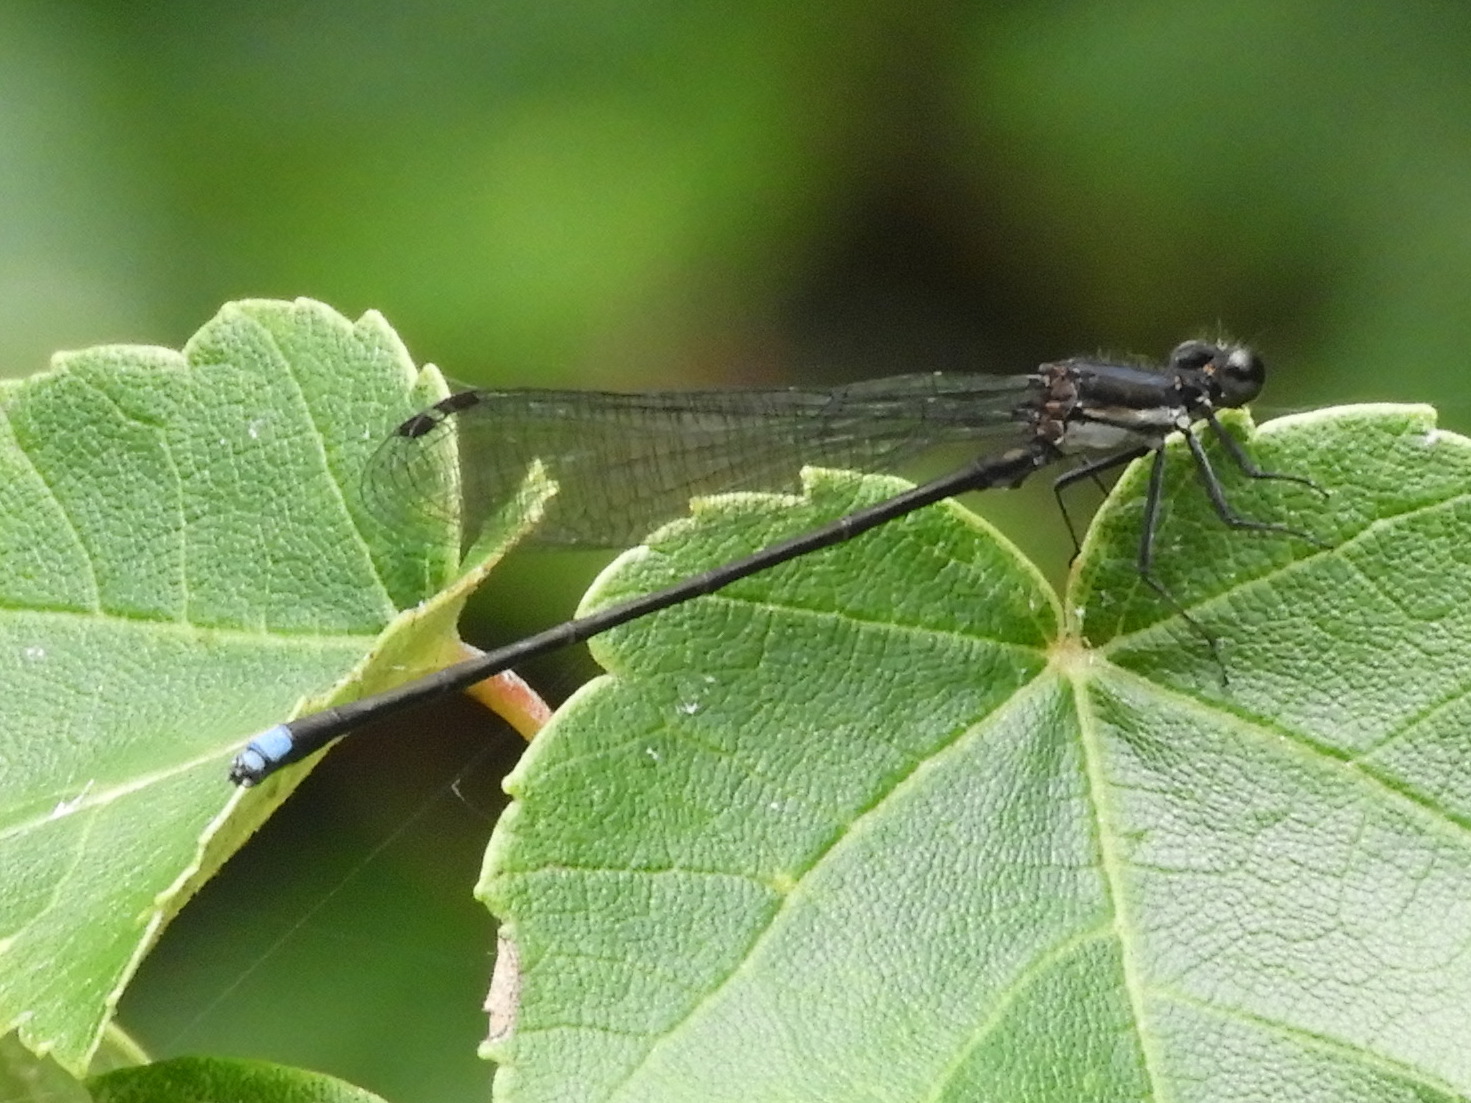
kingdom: Animalia
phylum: Arthropoda
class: Insecta
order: Odonata
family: Coenagrionidae
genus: Argia
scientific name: Argia tibialis
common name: Blue-tipped dancer
